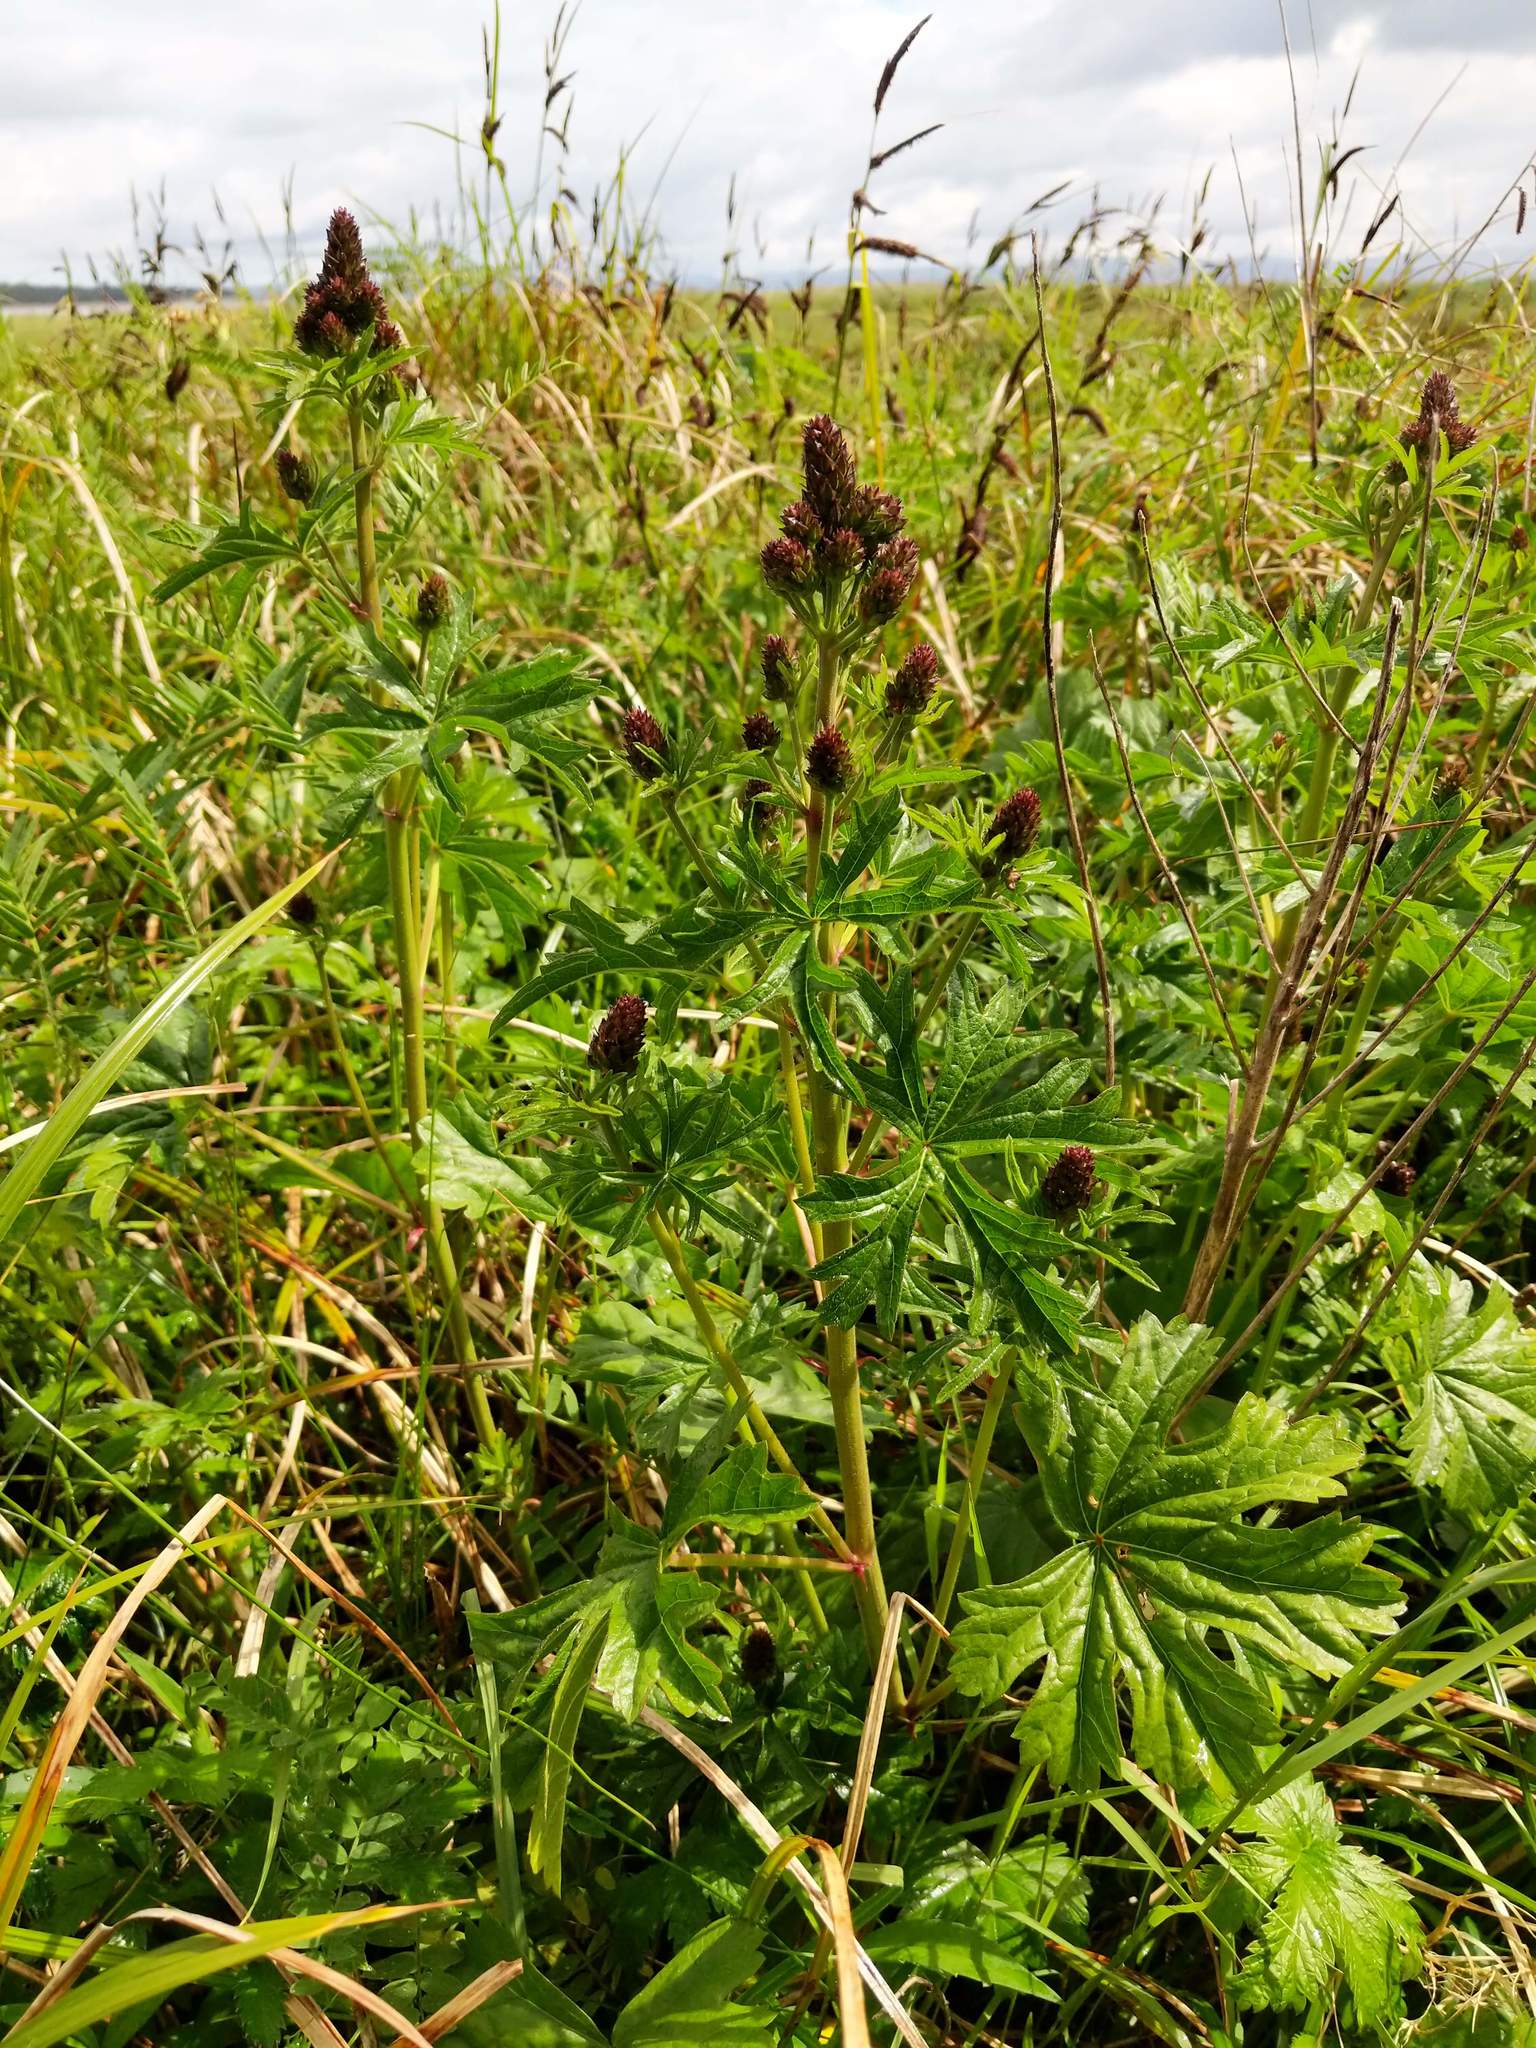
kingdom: Plantae
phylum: Tracheophyta
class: Magnoliopsida
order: Malvales
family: Malvaceae
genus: Sidalcea
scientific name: Sidalcea hendersonii
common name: Mallow
